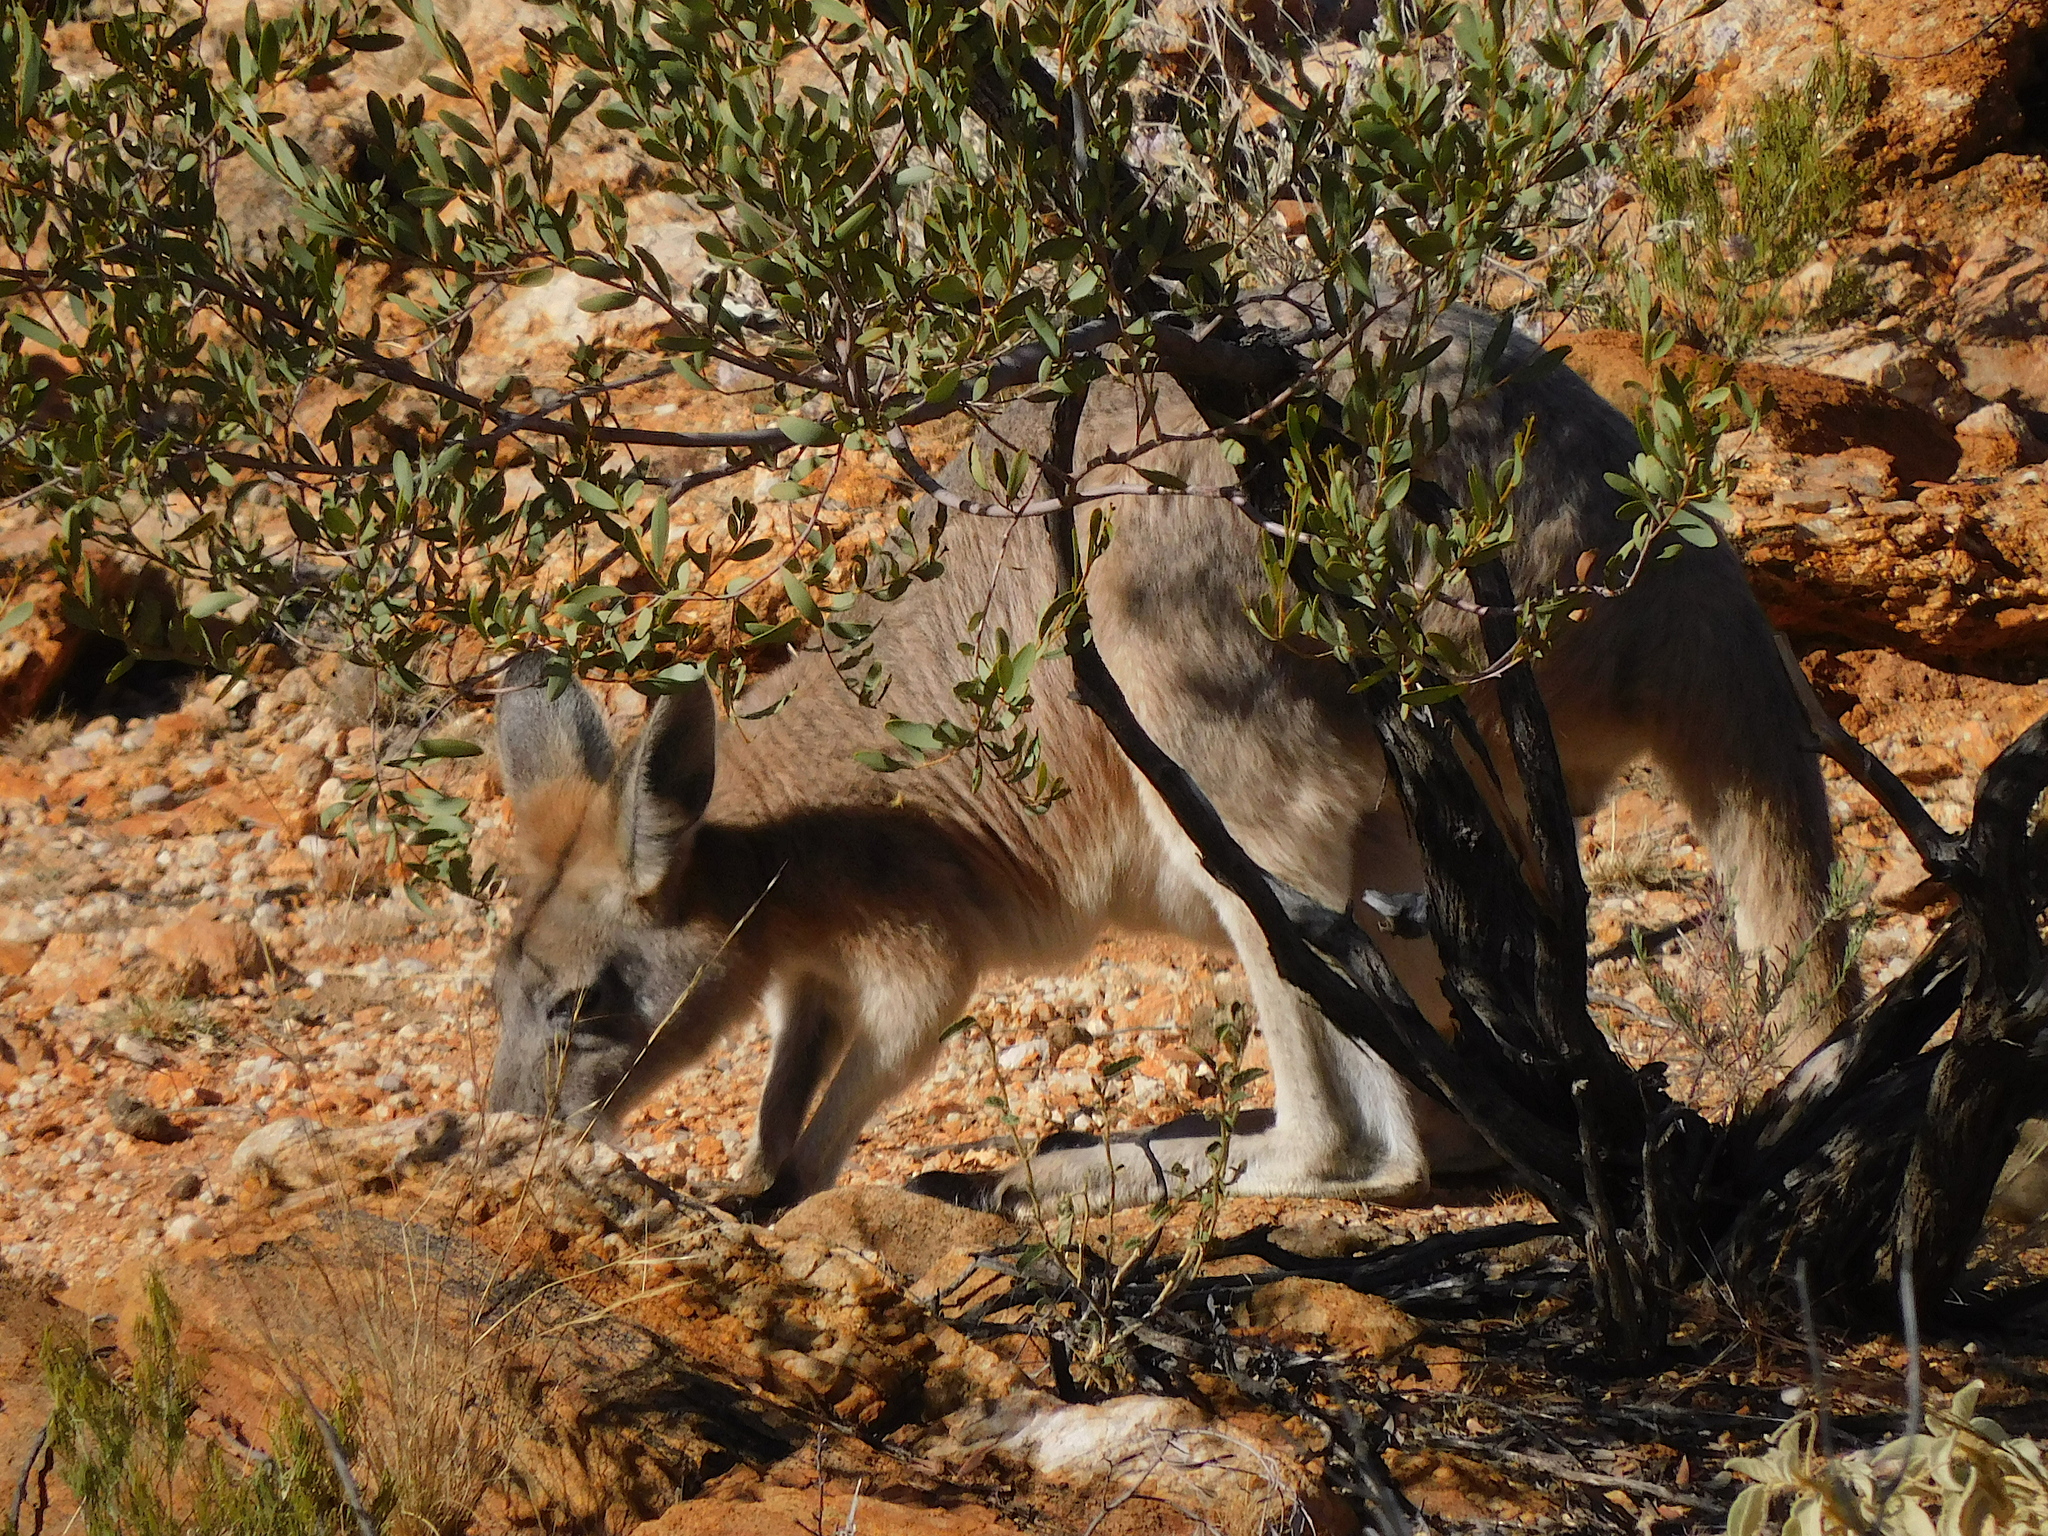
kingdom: Animalia
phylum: Chordata
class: Mammalia
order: Diprotodontia
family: Macropodidae
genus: Macropus
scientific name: Macropus robustus
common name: Eastern wallaroo
